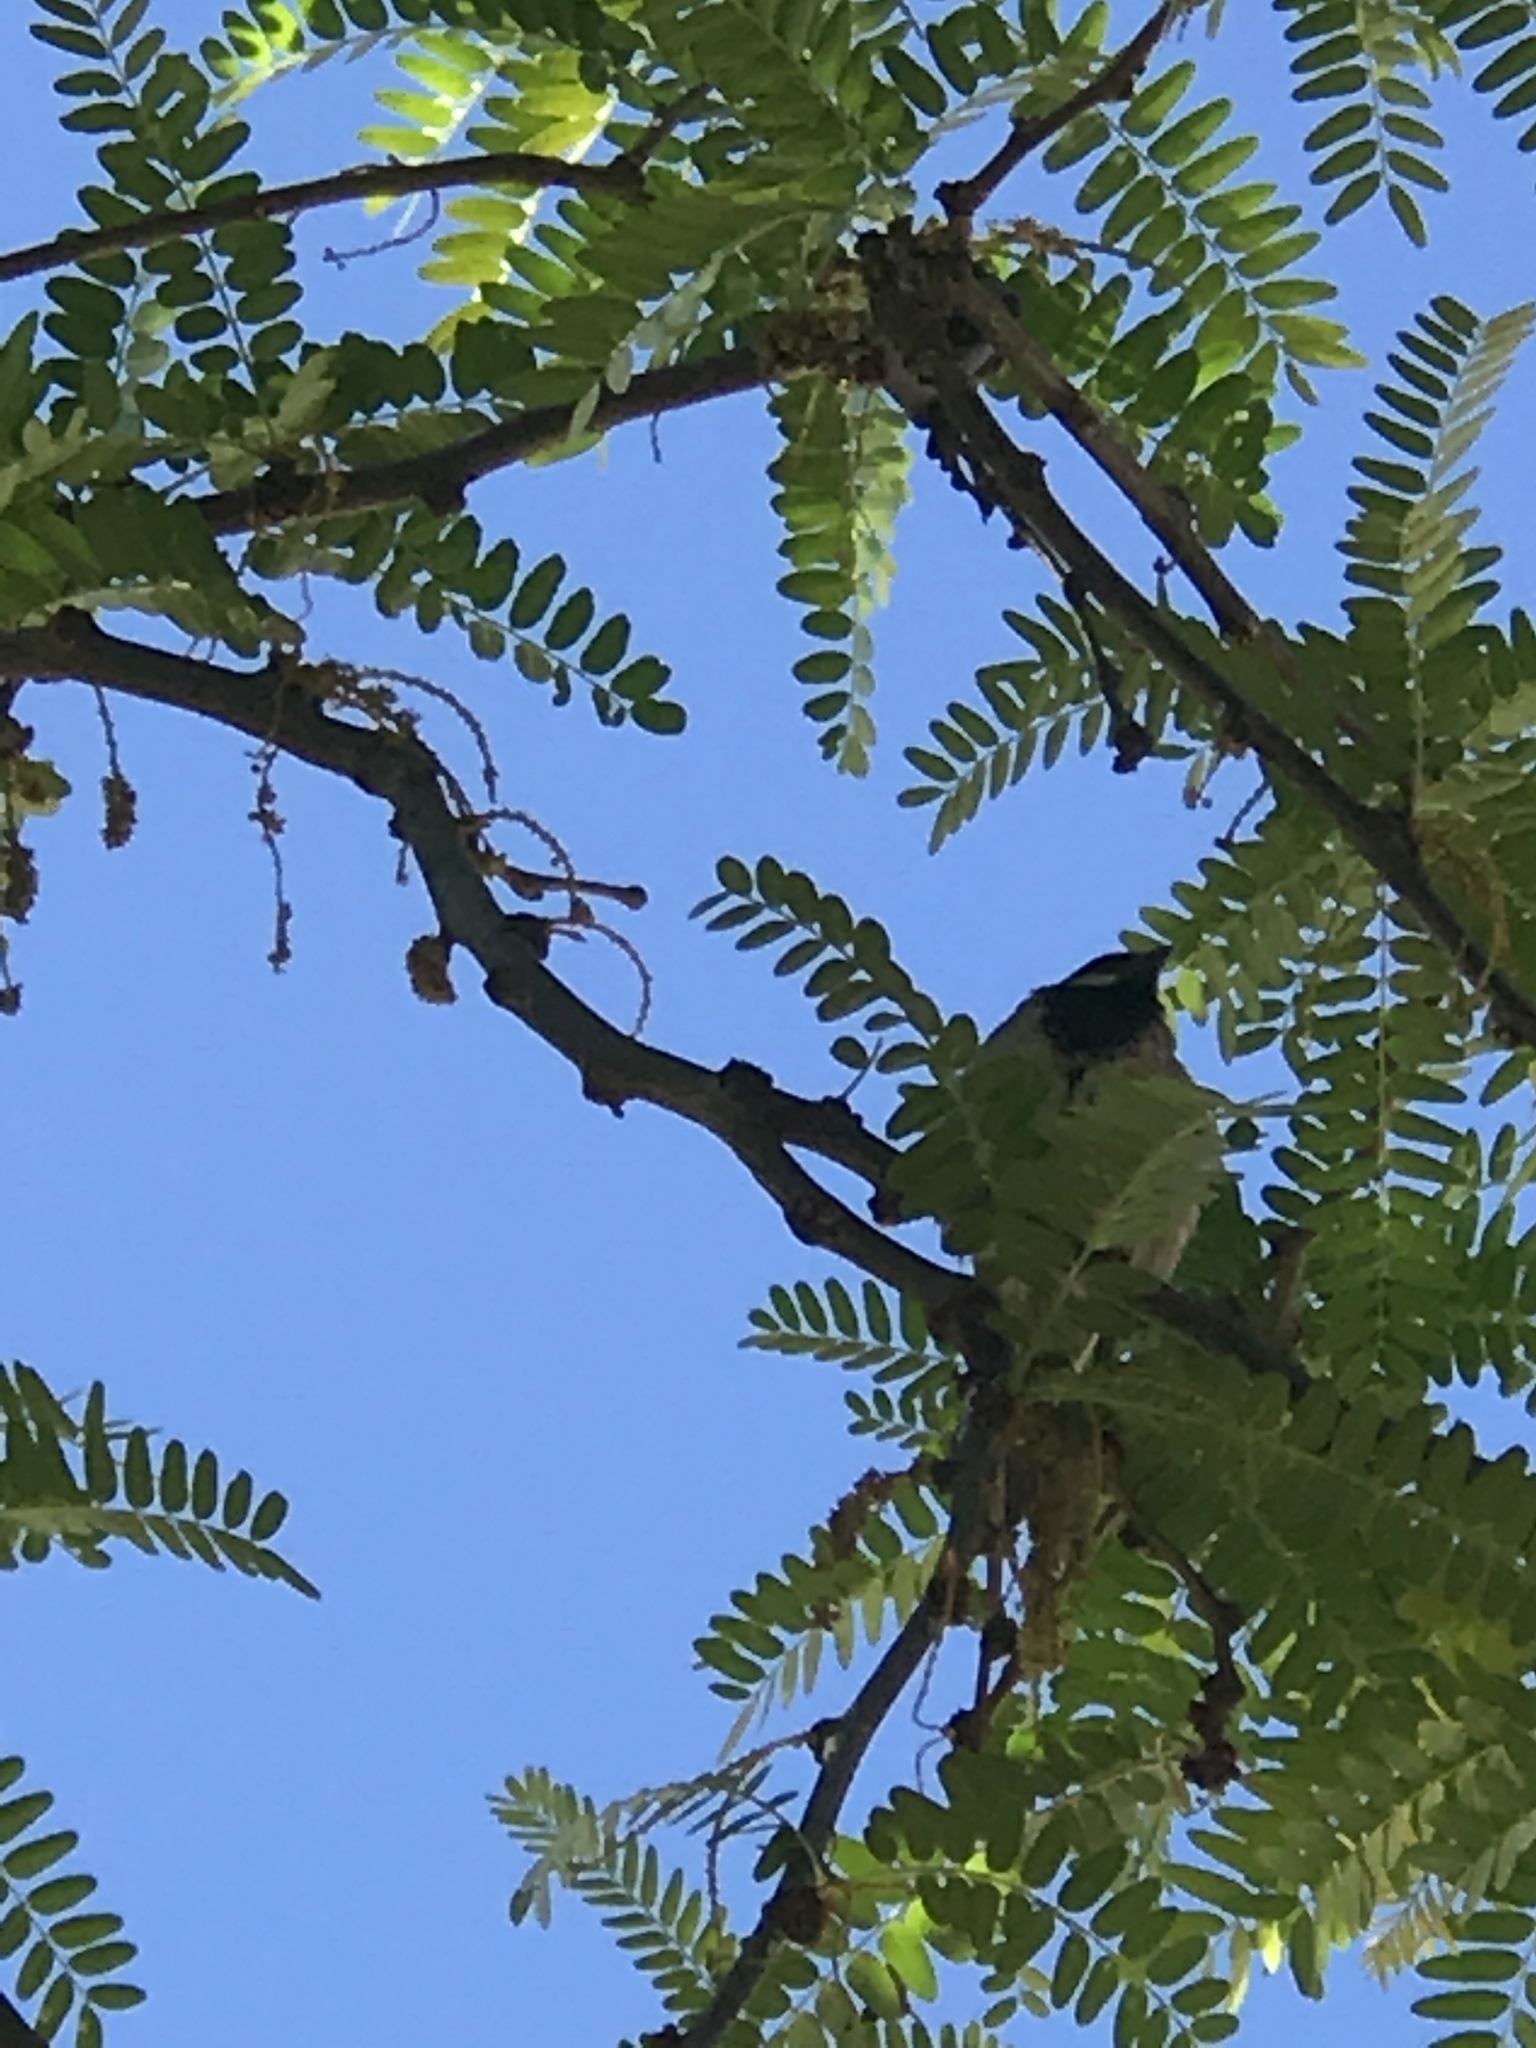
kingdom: Animalia
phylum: Chordata
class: Aves
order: Passeriformes
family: Passeridae
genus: Passer
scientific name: Passer domesticus
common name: House sparrow
